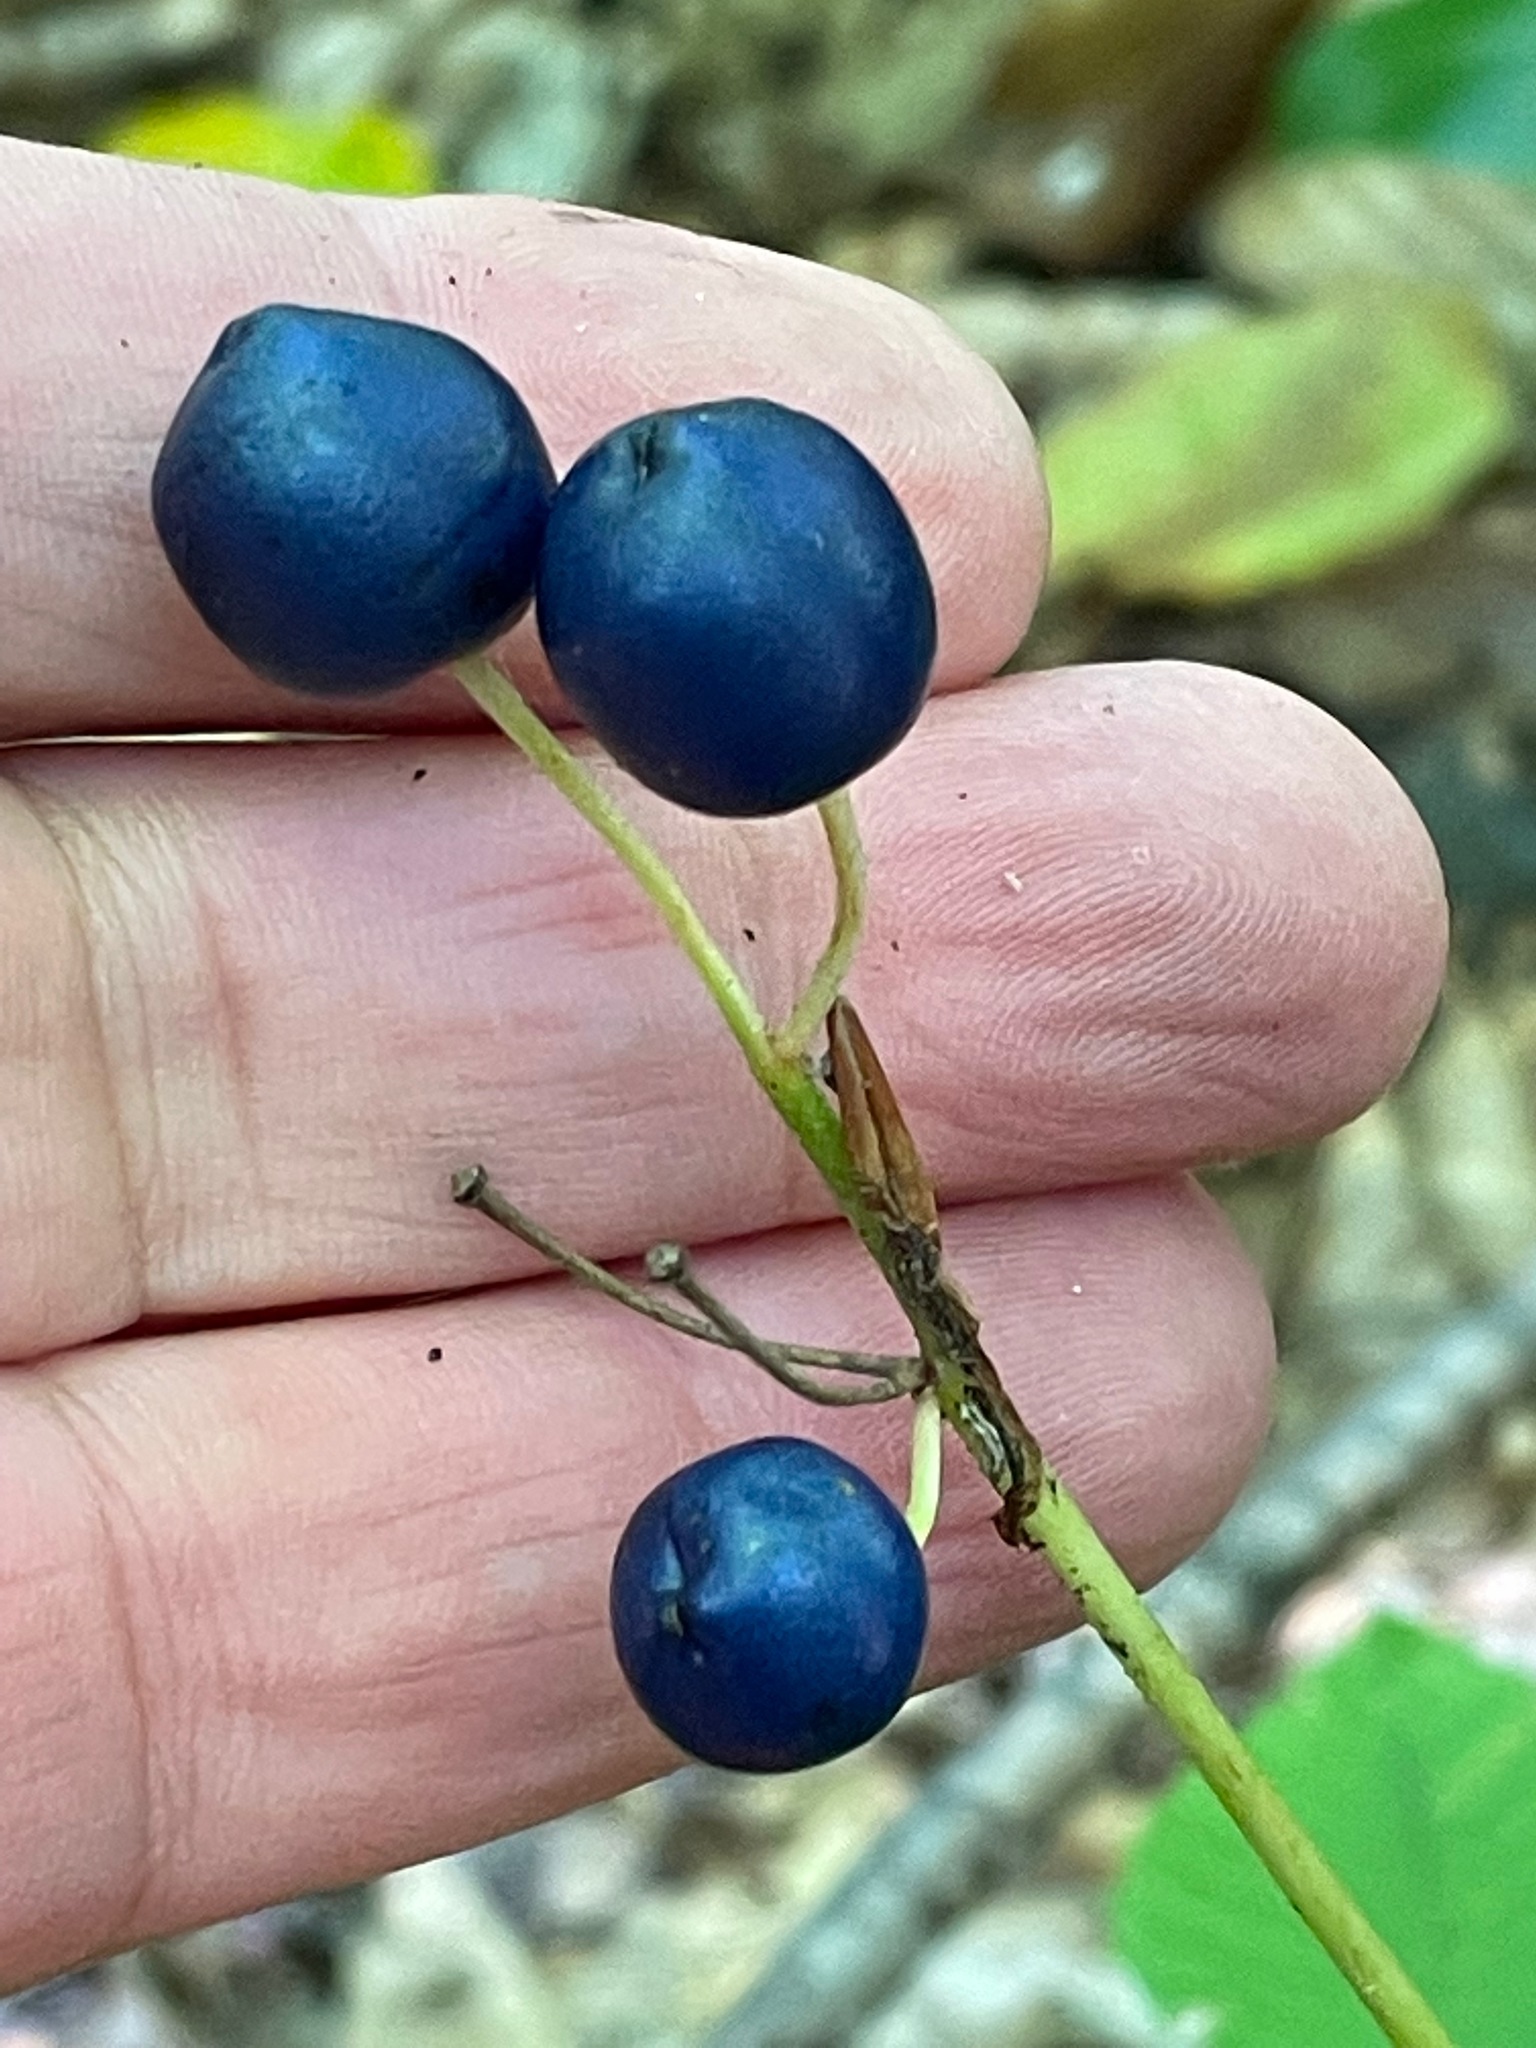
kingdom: Plantae
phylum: Tracheophyta
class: Liliopsida
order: Liliales
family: Liliaceae
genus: Clintonia
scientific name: Clintonia borealis
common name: Yellow clintonia
